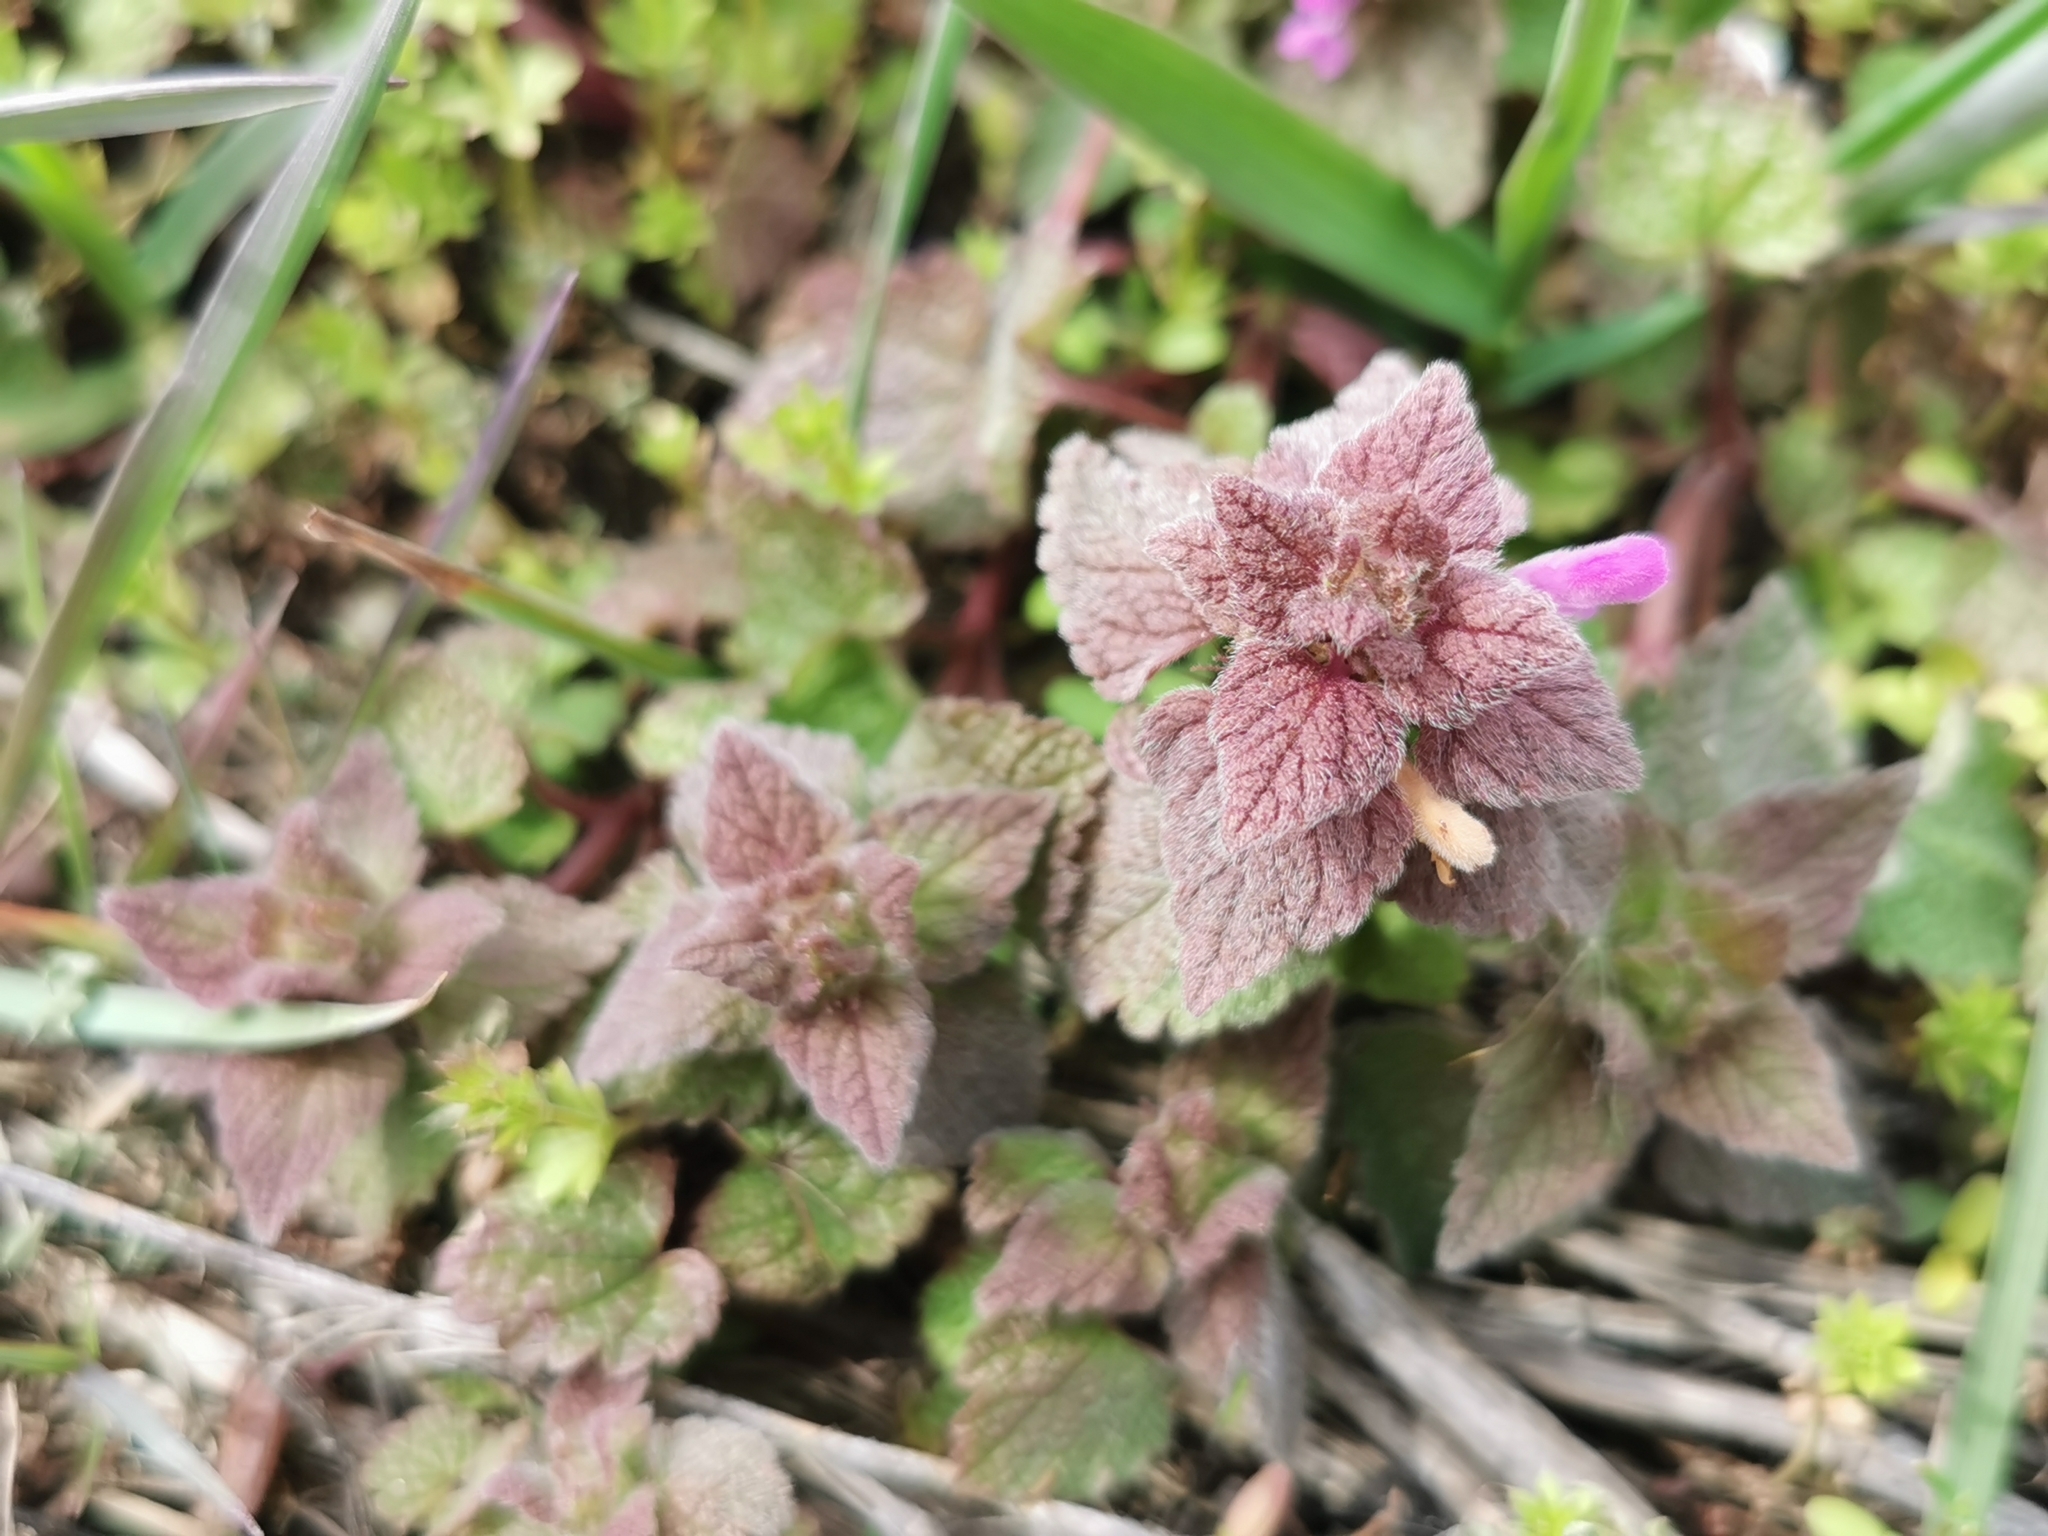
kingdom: Plantae
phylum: Tracheophyta
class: Magnoliopsida
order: Lamiales
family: Lamiaceae
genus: Lamium
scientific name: Lamium purpureum
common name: Red dead-nettle
